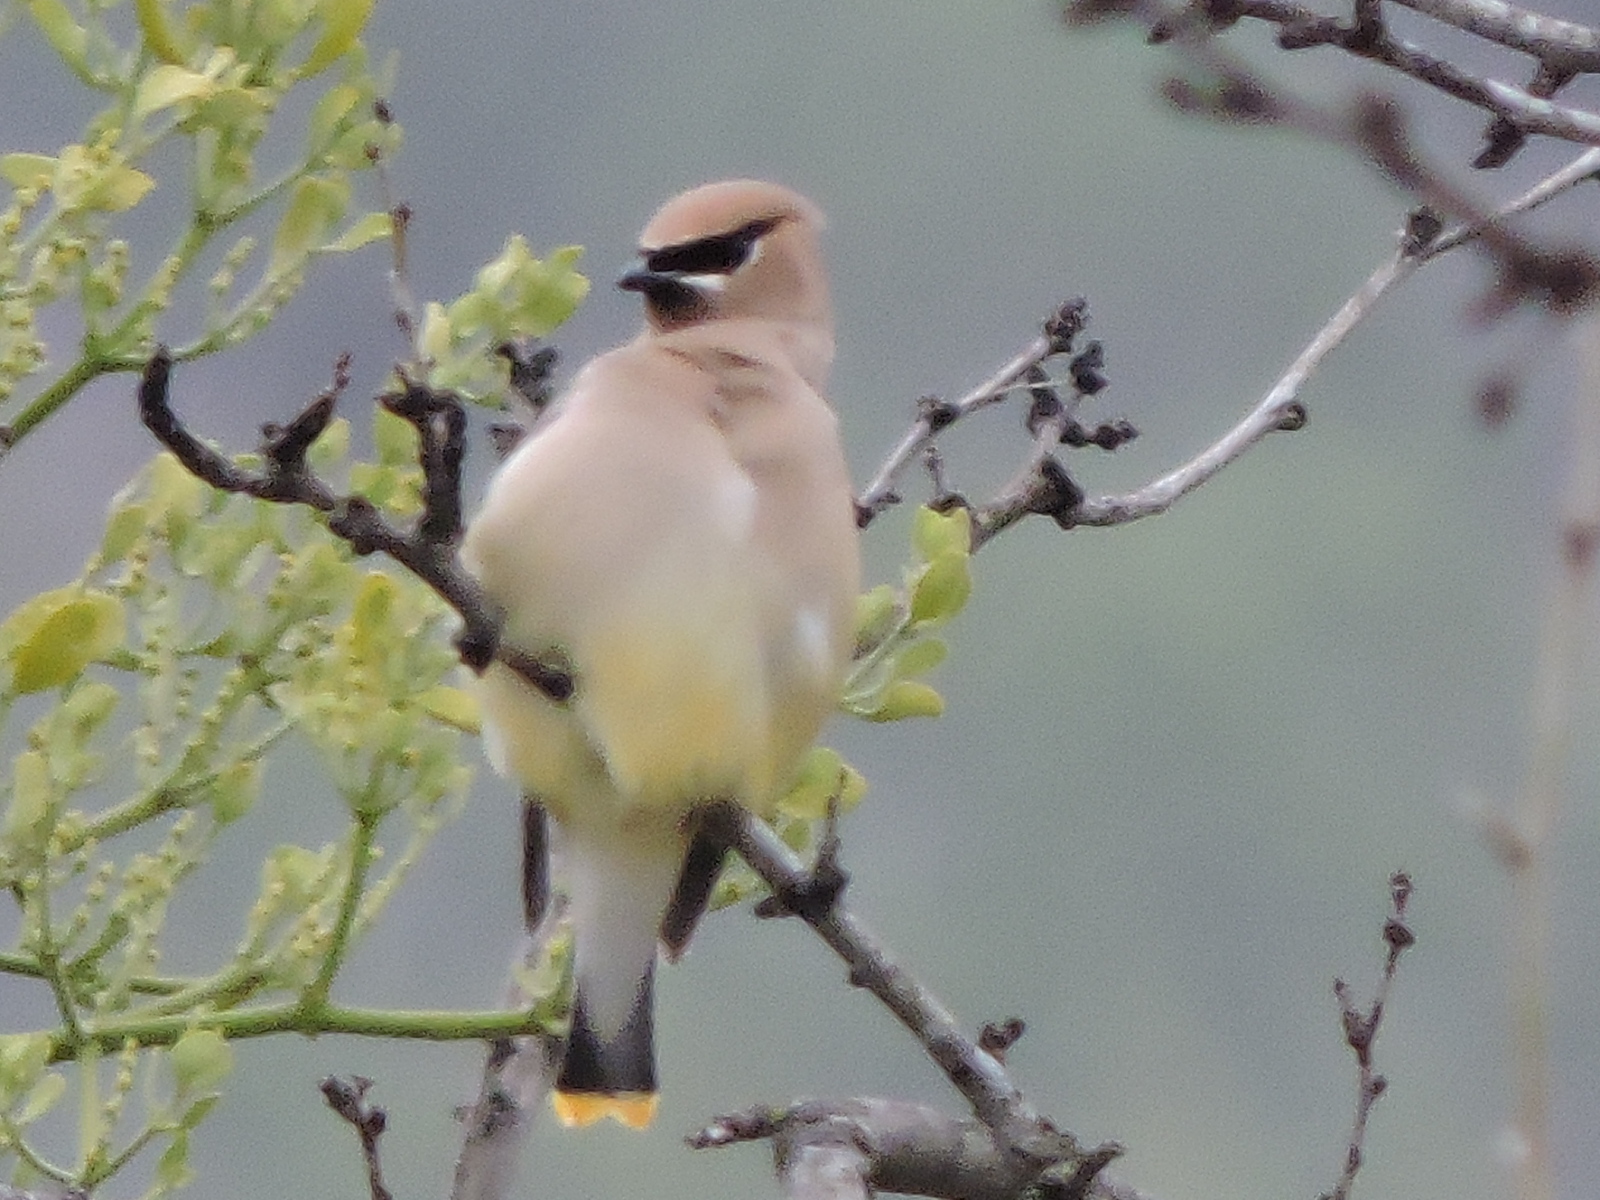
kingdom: Animalia
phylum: Chordata
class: Aves
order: Passeriformes
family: Bombycillidae
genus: Bombycilla
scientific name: Bombycilla cedrorum
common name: Cedar waxwing
